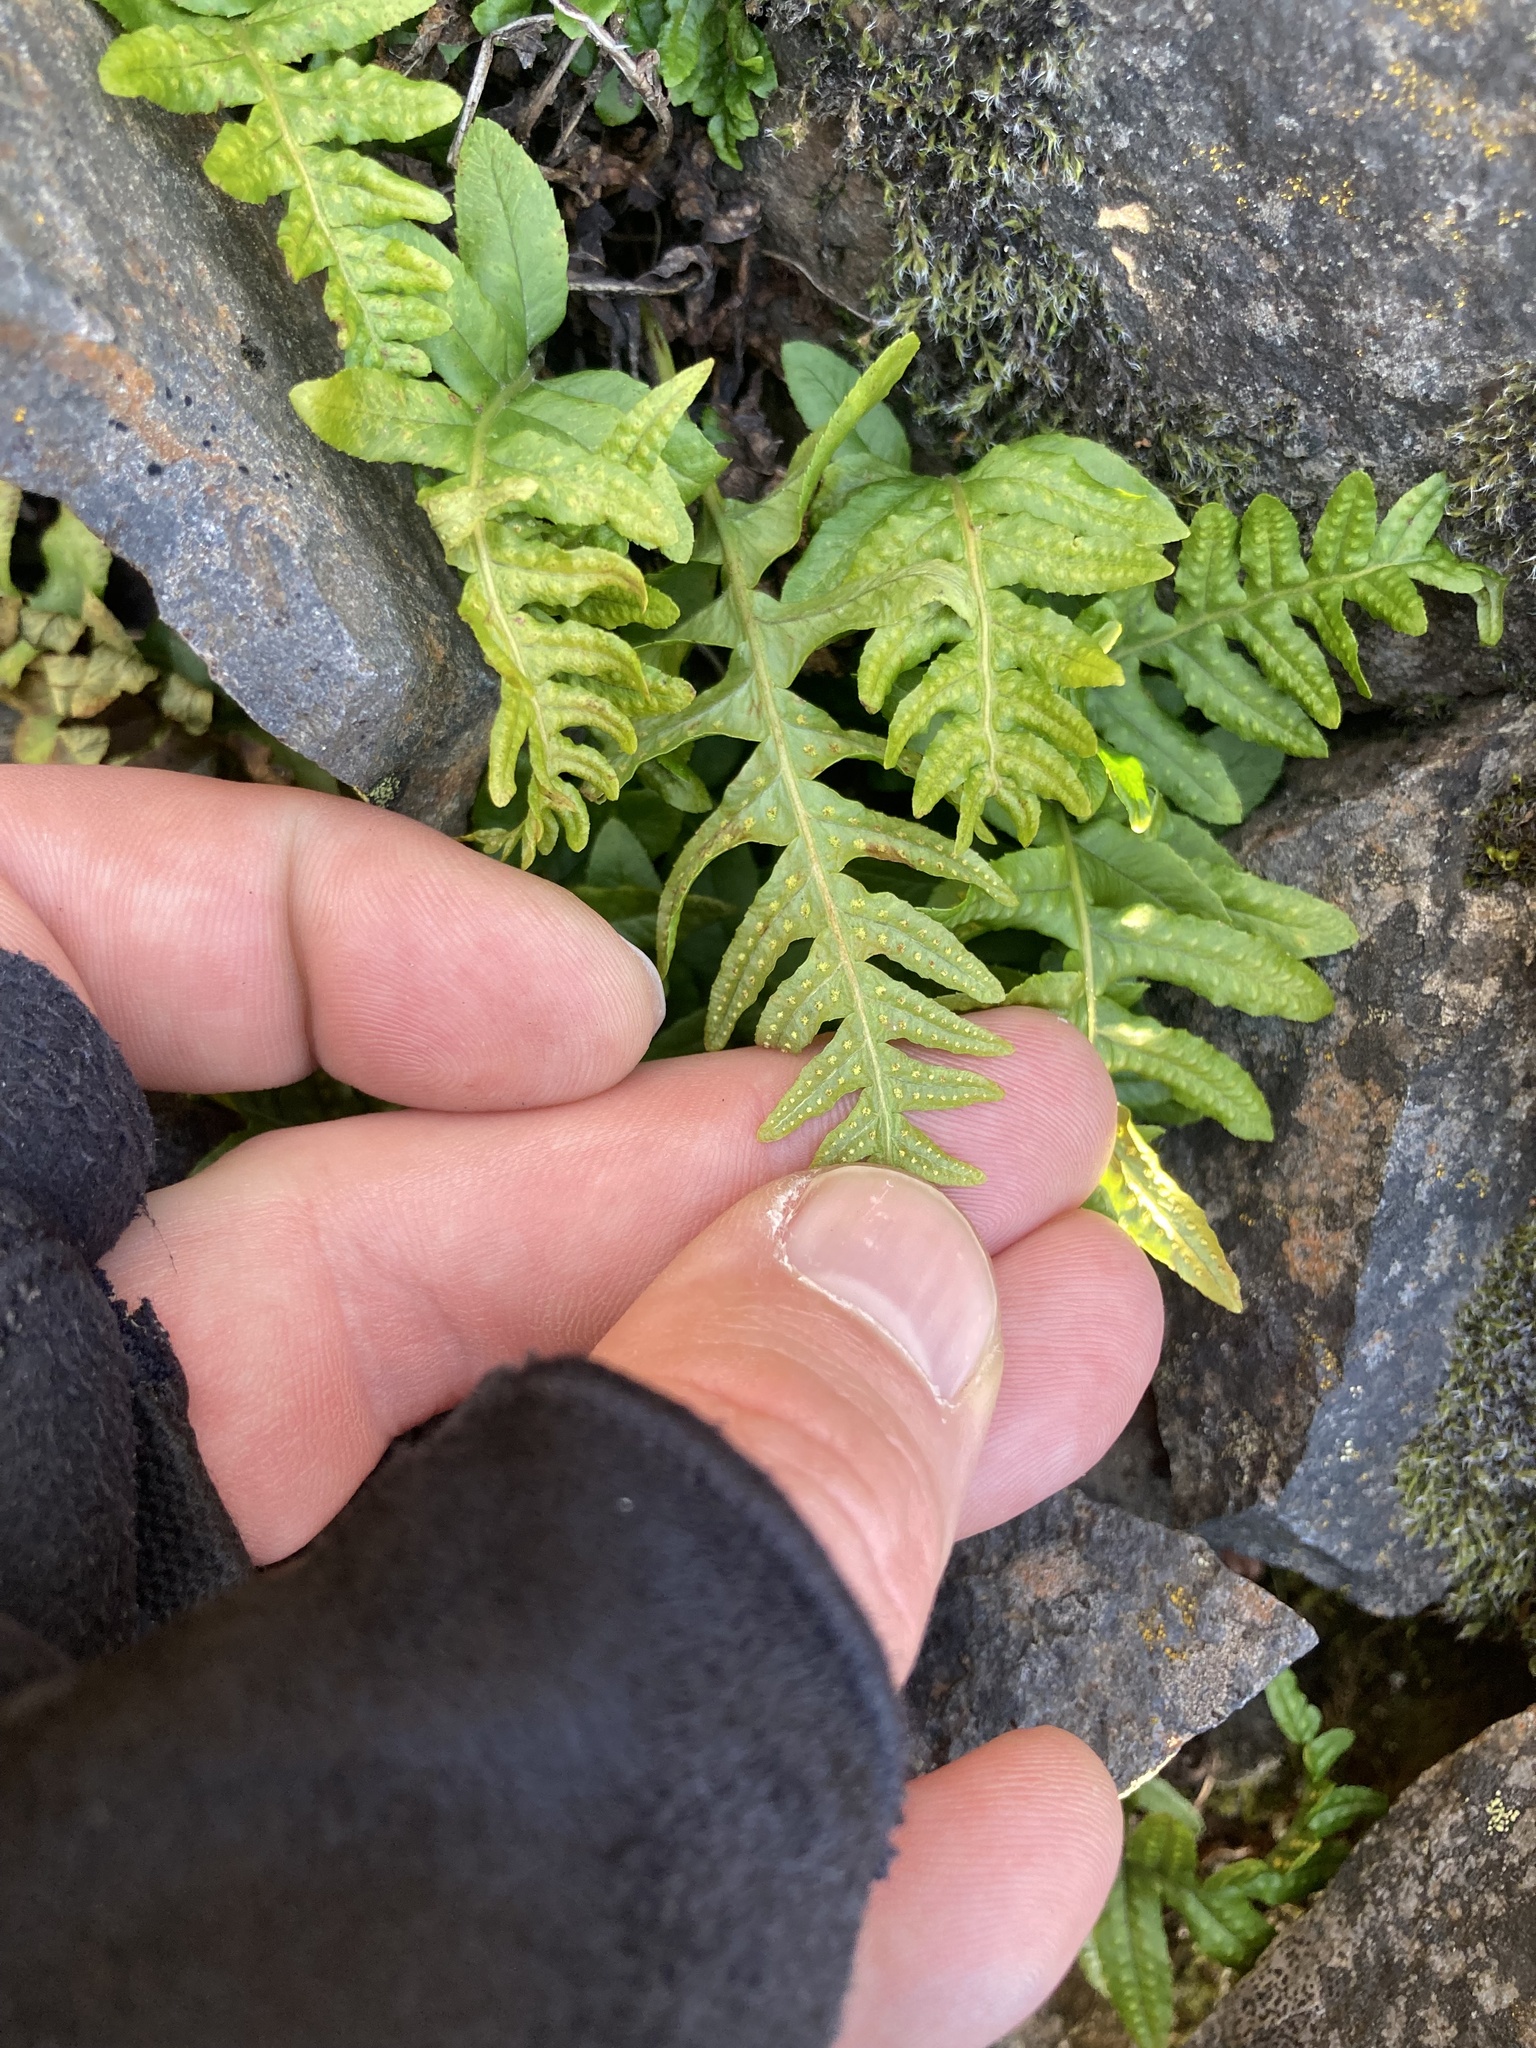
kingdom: Plantae
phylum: Tracheophyta
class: Polypodiopsida
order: Polypodiales
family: Polypodiaceae
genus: Polypodium
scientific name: Polypodium hesperium
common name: Western polypody
